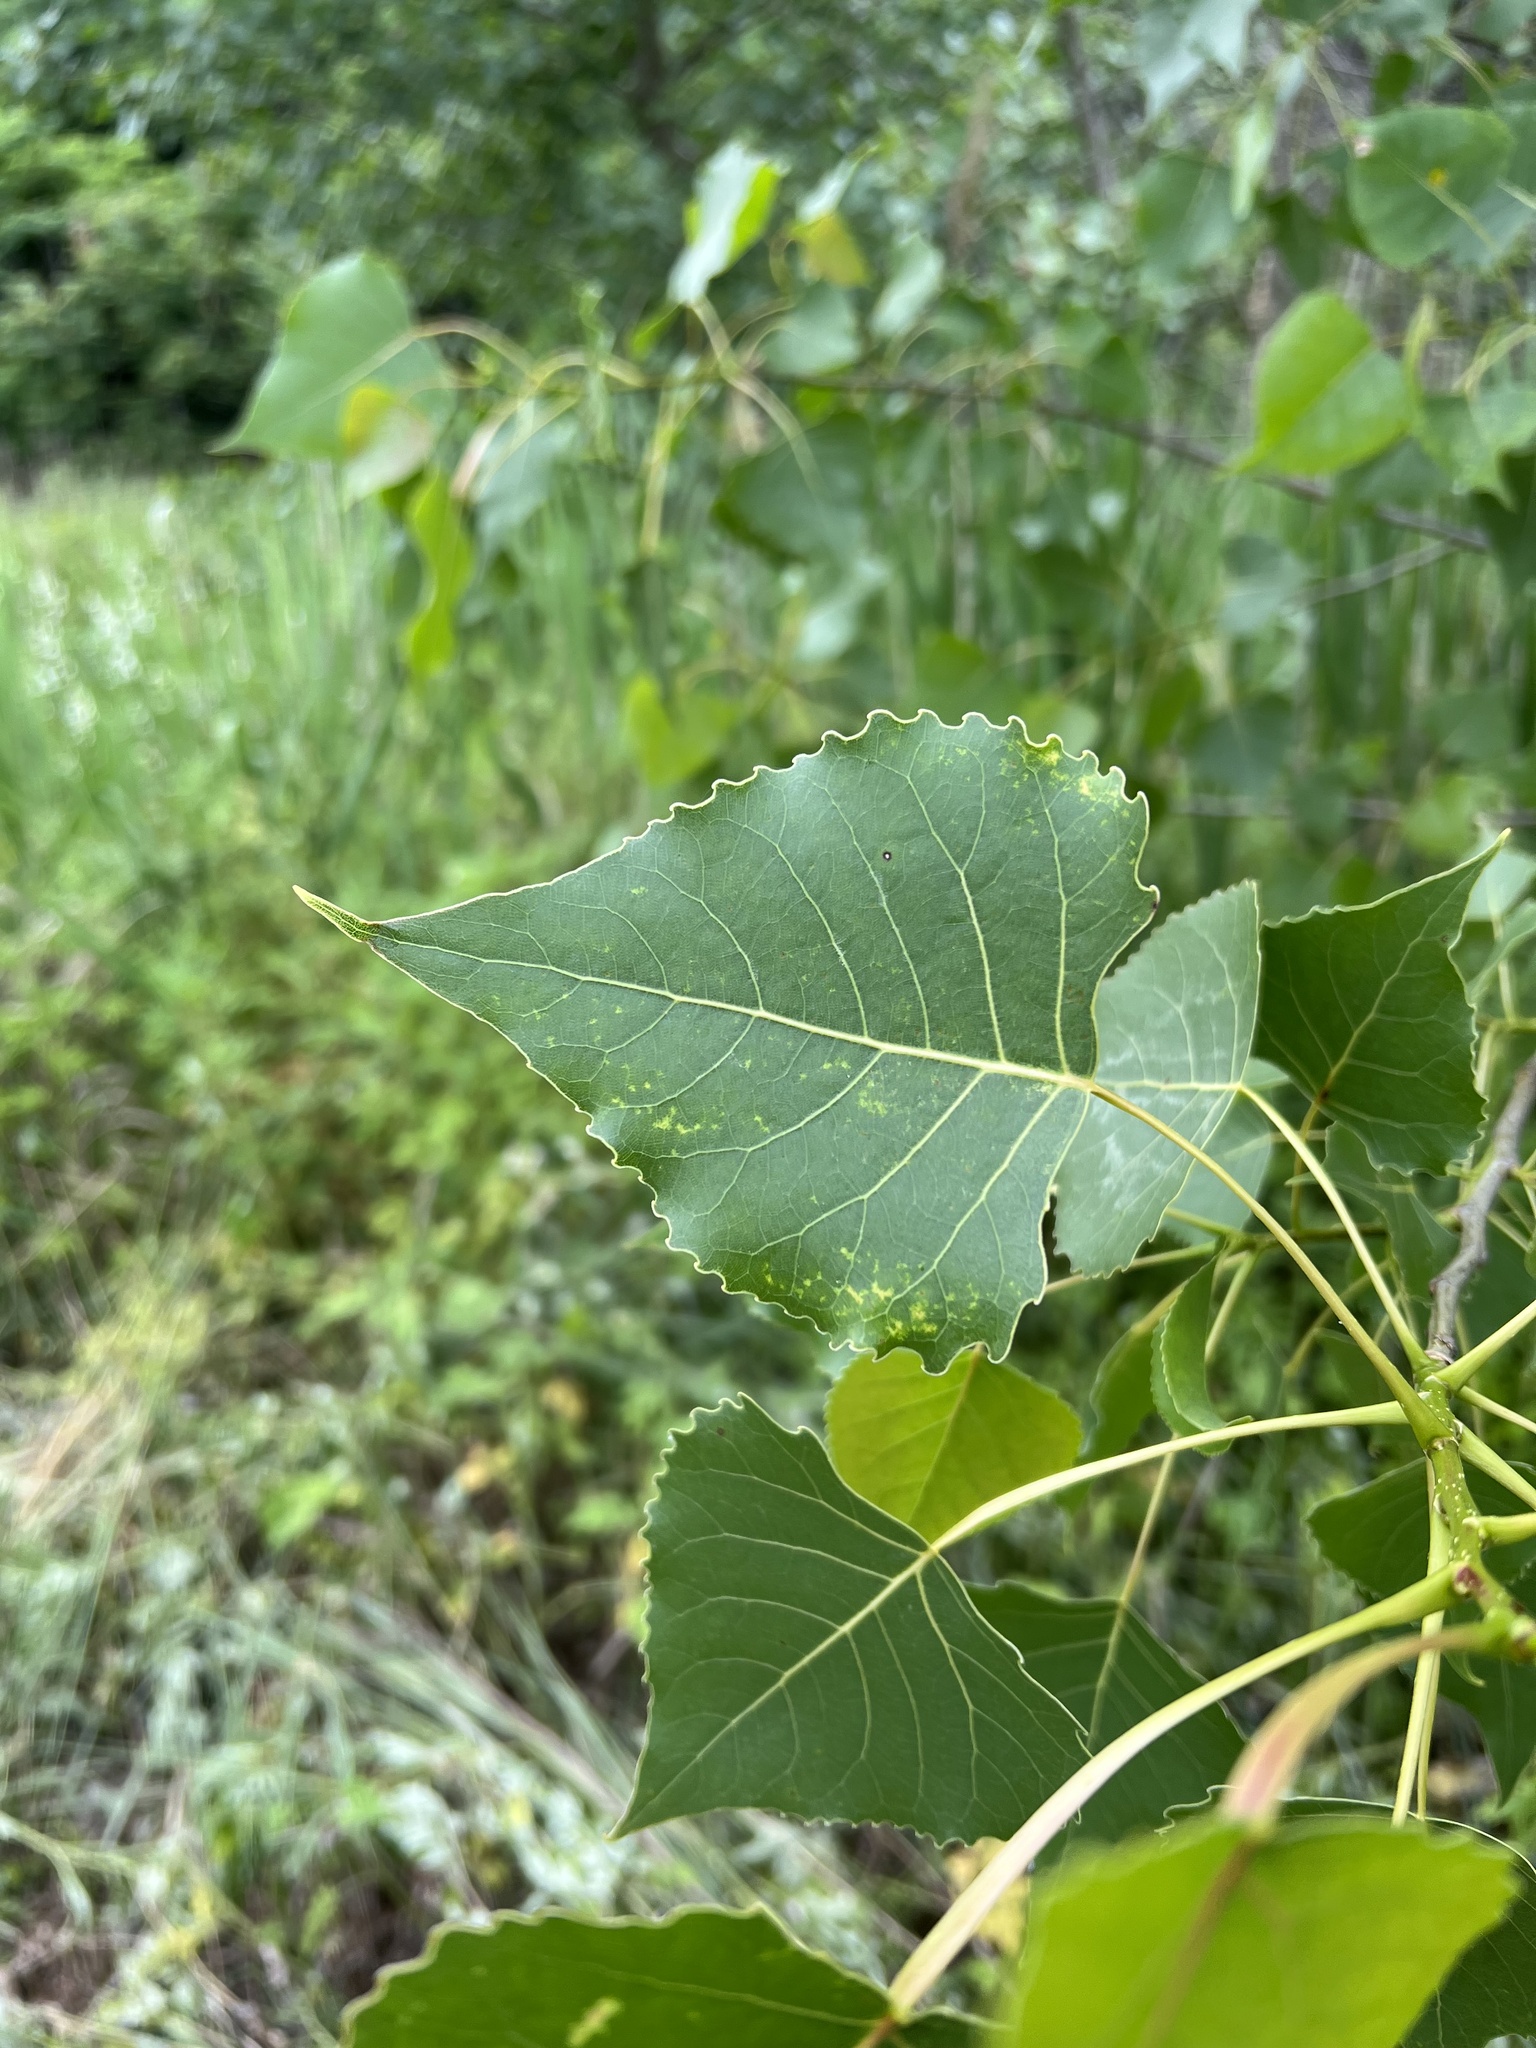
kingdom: Plantae
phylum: Tracheophyta
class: Magnoliopsida
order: Malpighiales
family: Salicaceae
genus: Populus
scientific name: Populus deltoides
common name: Eastern cottonwood
